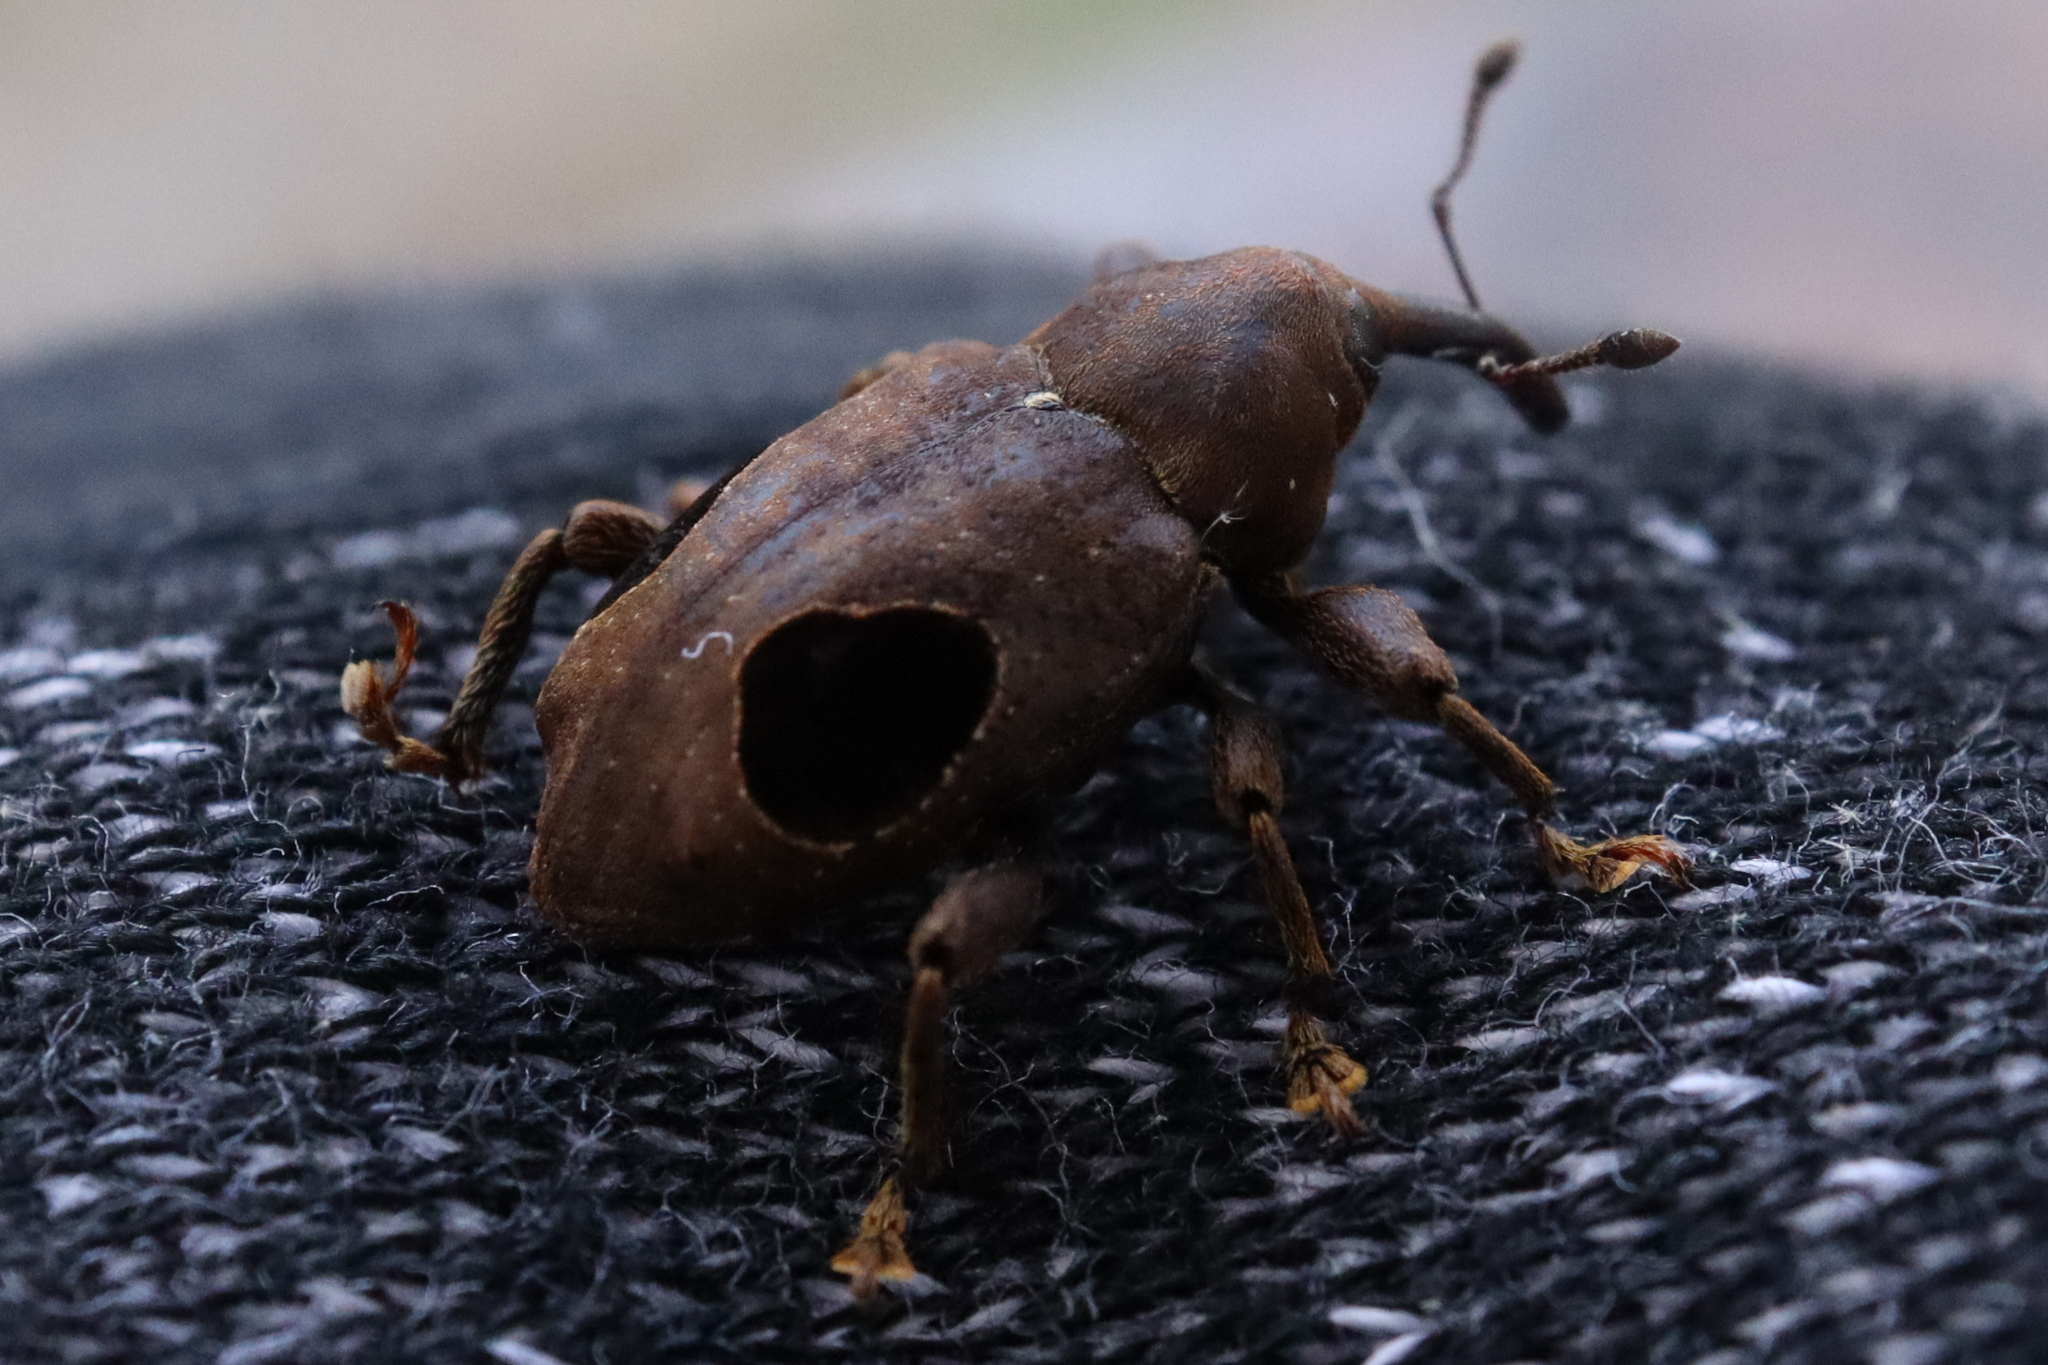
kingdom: Animalia
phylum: Arthropoda
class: Insecta
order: Coleoptera
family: Curculionidae
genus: Heilipodus
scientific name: Heilipodus ocelliger
